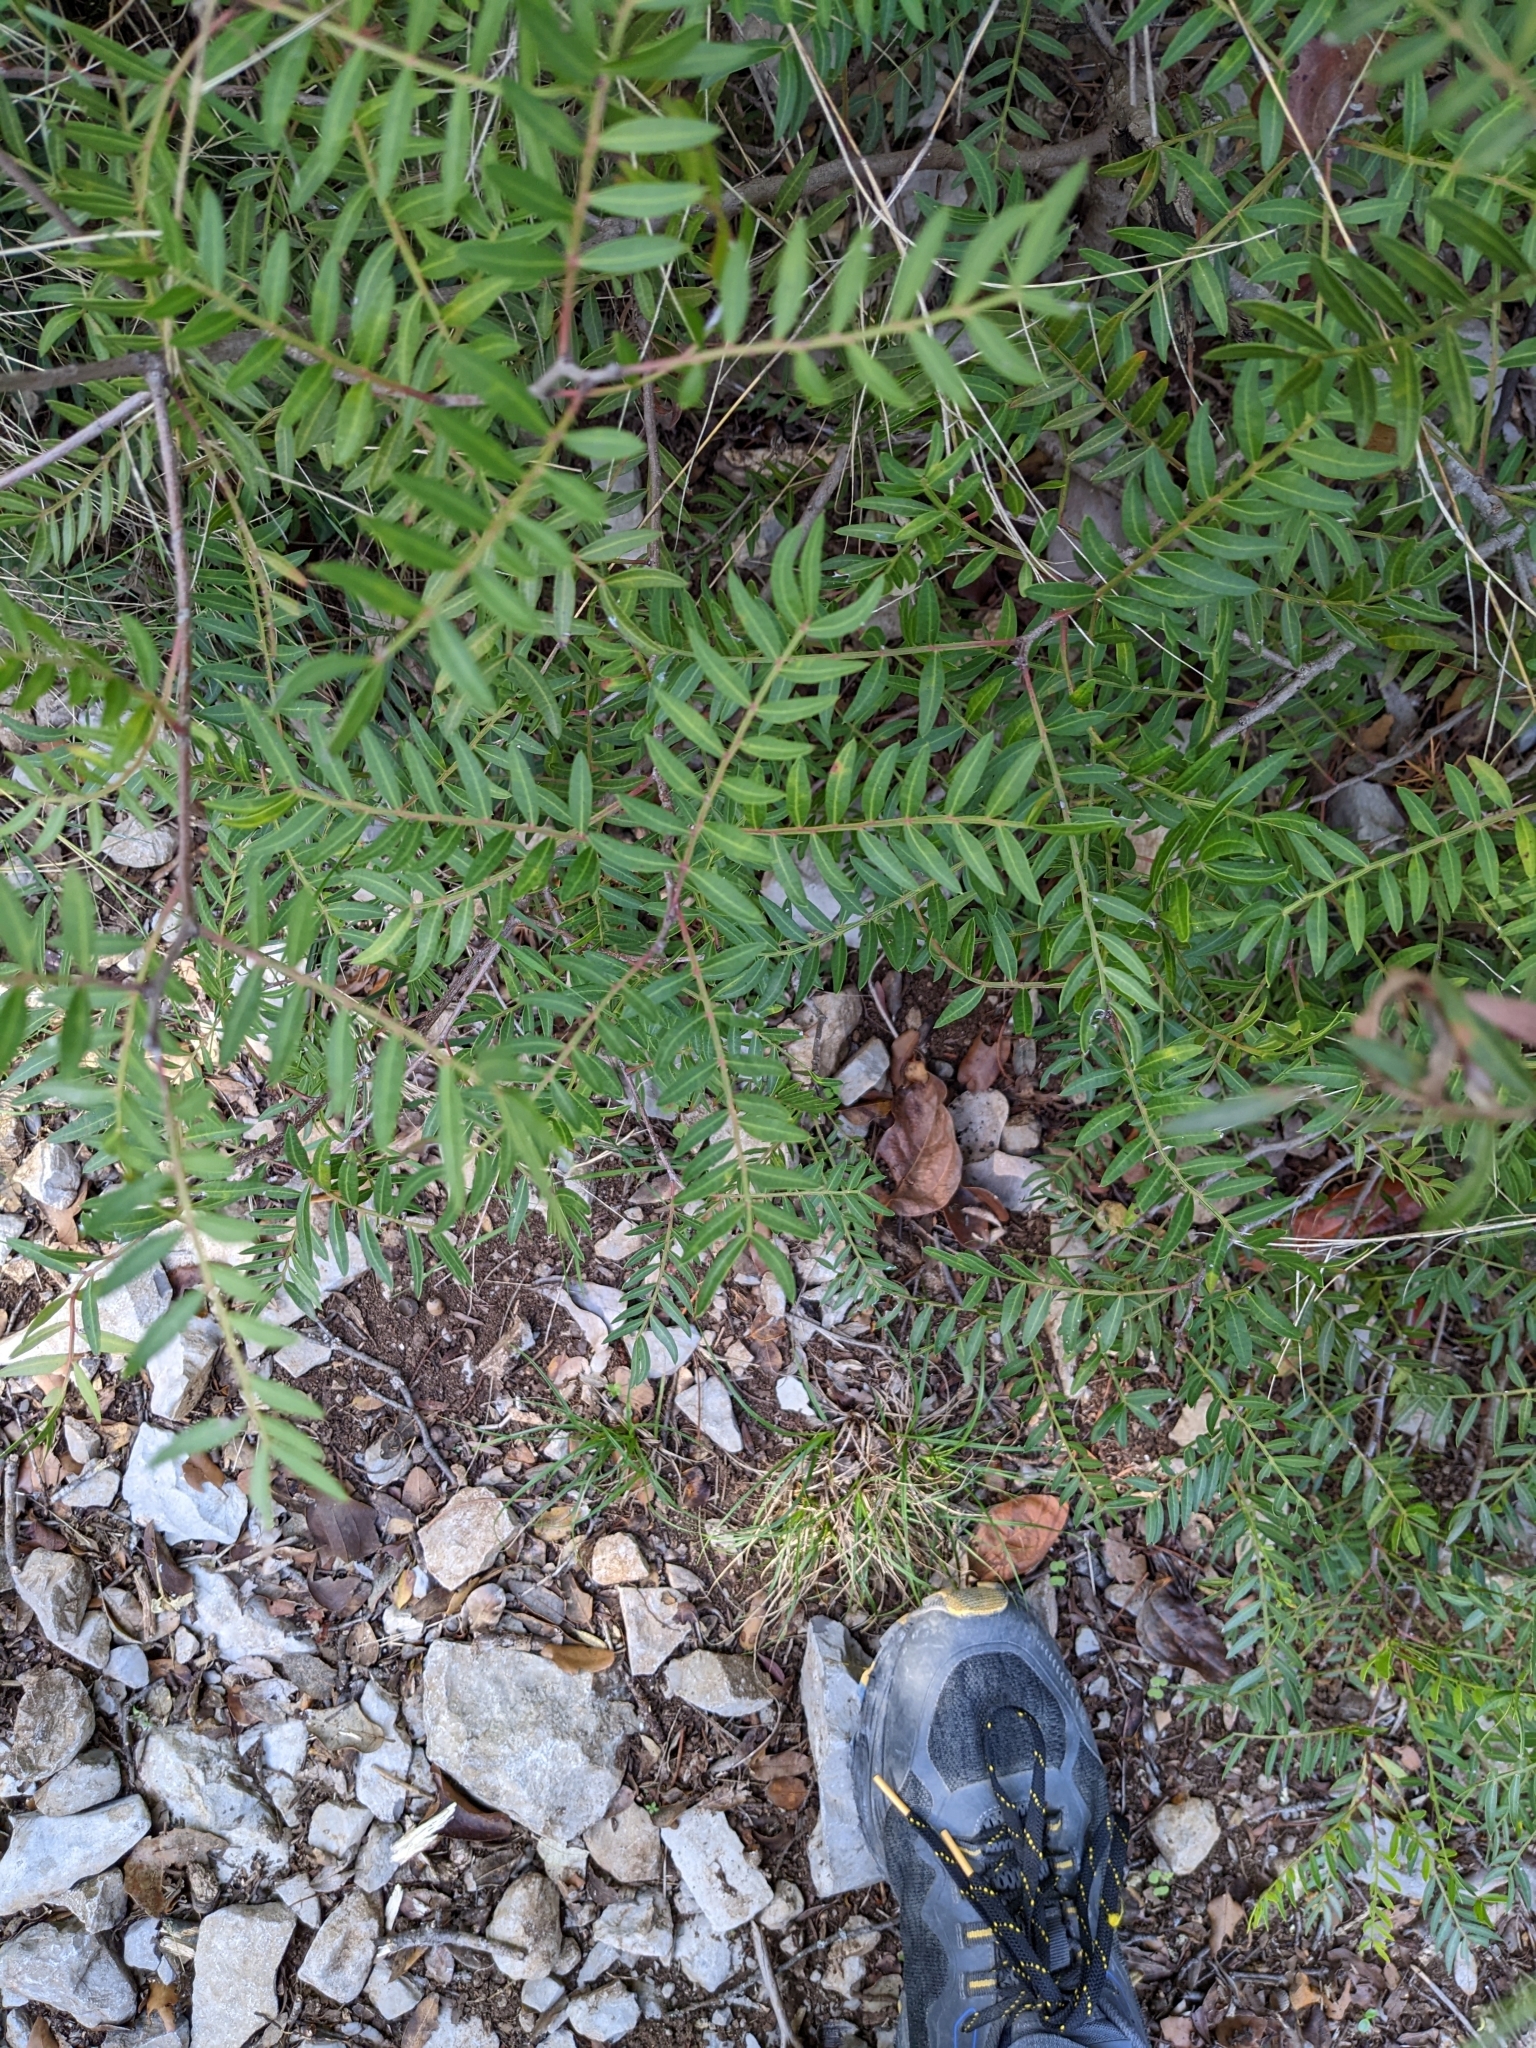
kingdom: Plantae
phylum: Tracheophyta
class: Magnoliopsida
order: Sapindales
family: Anacardiaceae
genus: Pistacia
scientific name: Pistacia lentiscus
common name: Lentisk
